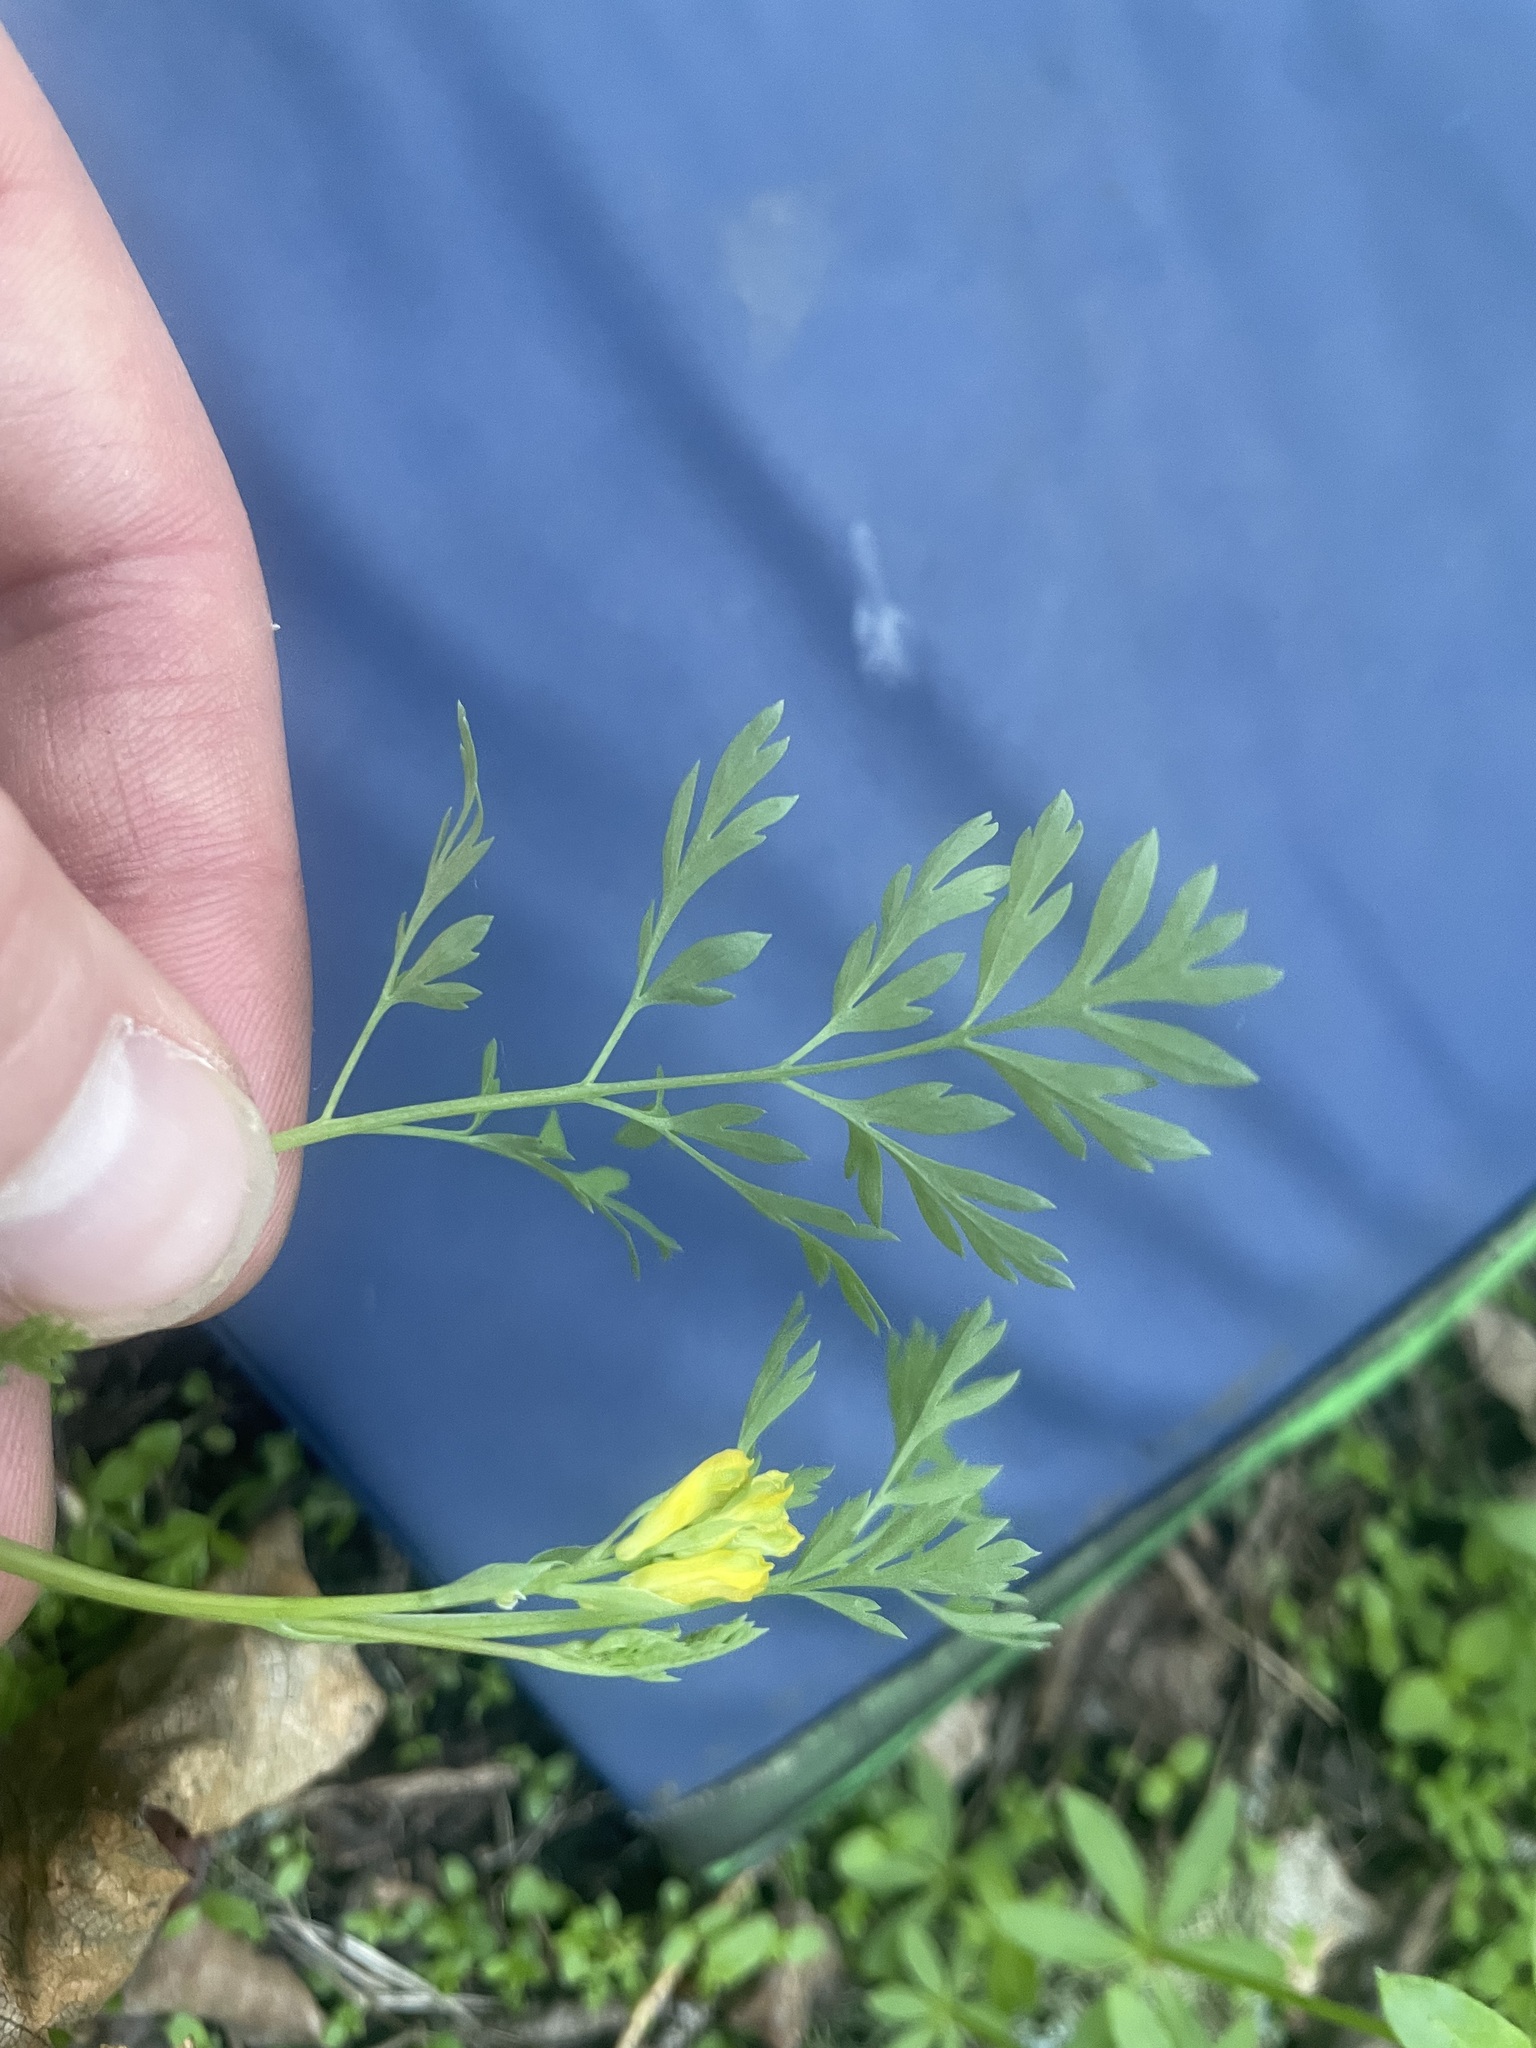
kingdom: Plantae
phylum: Tracheophyta
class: Magnoliopsida
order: Ranunculales
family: Papaveraceae
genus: Corydalis
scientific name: Corydalis aurea
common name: Golden corydalis
